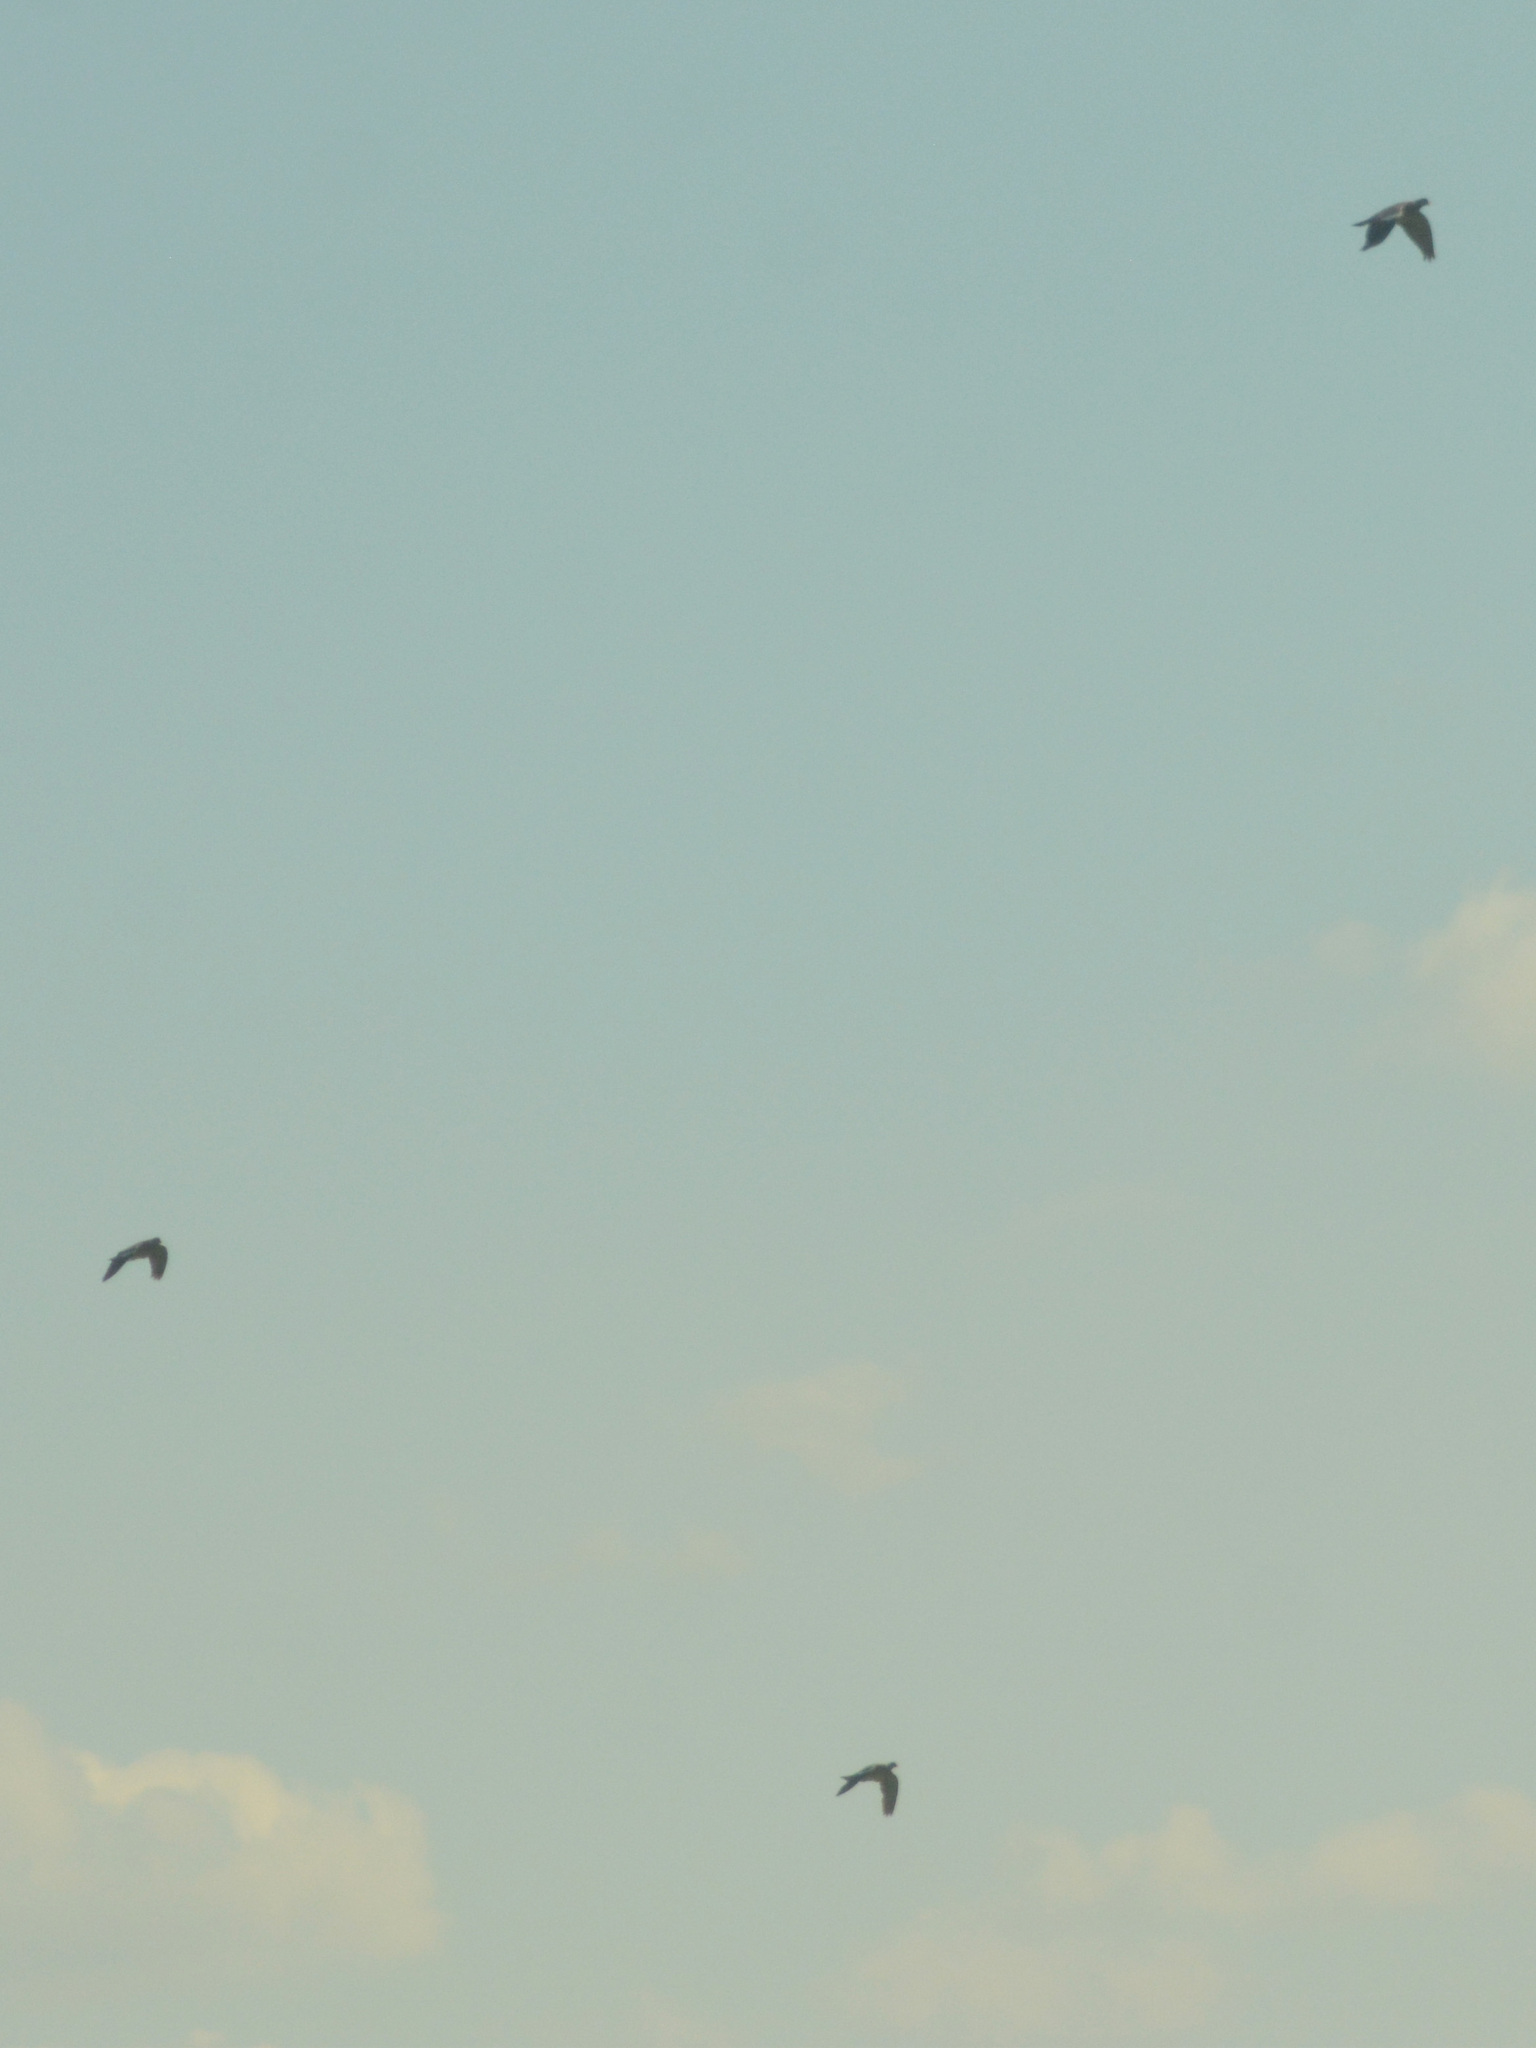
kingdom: Animalia
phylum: Chordata
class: Aves
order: Columbiformes
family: Columbidae
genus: Columba
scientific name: Columba palumbus
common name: Common wood pigeon
